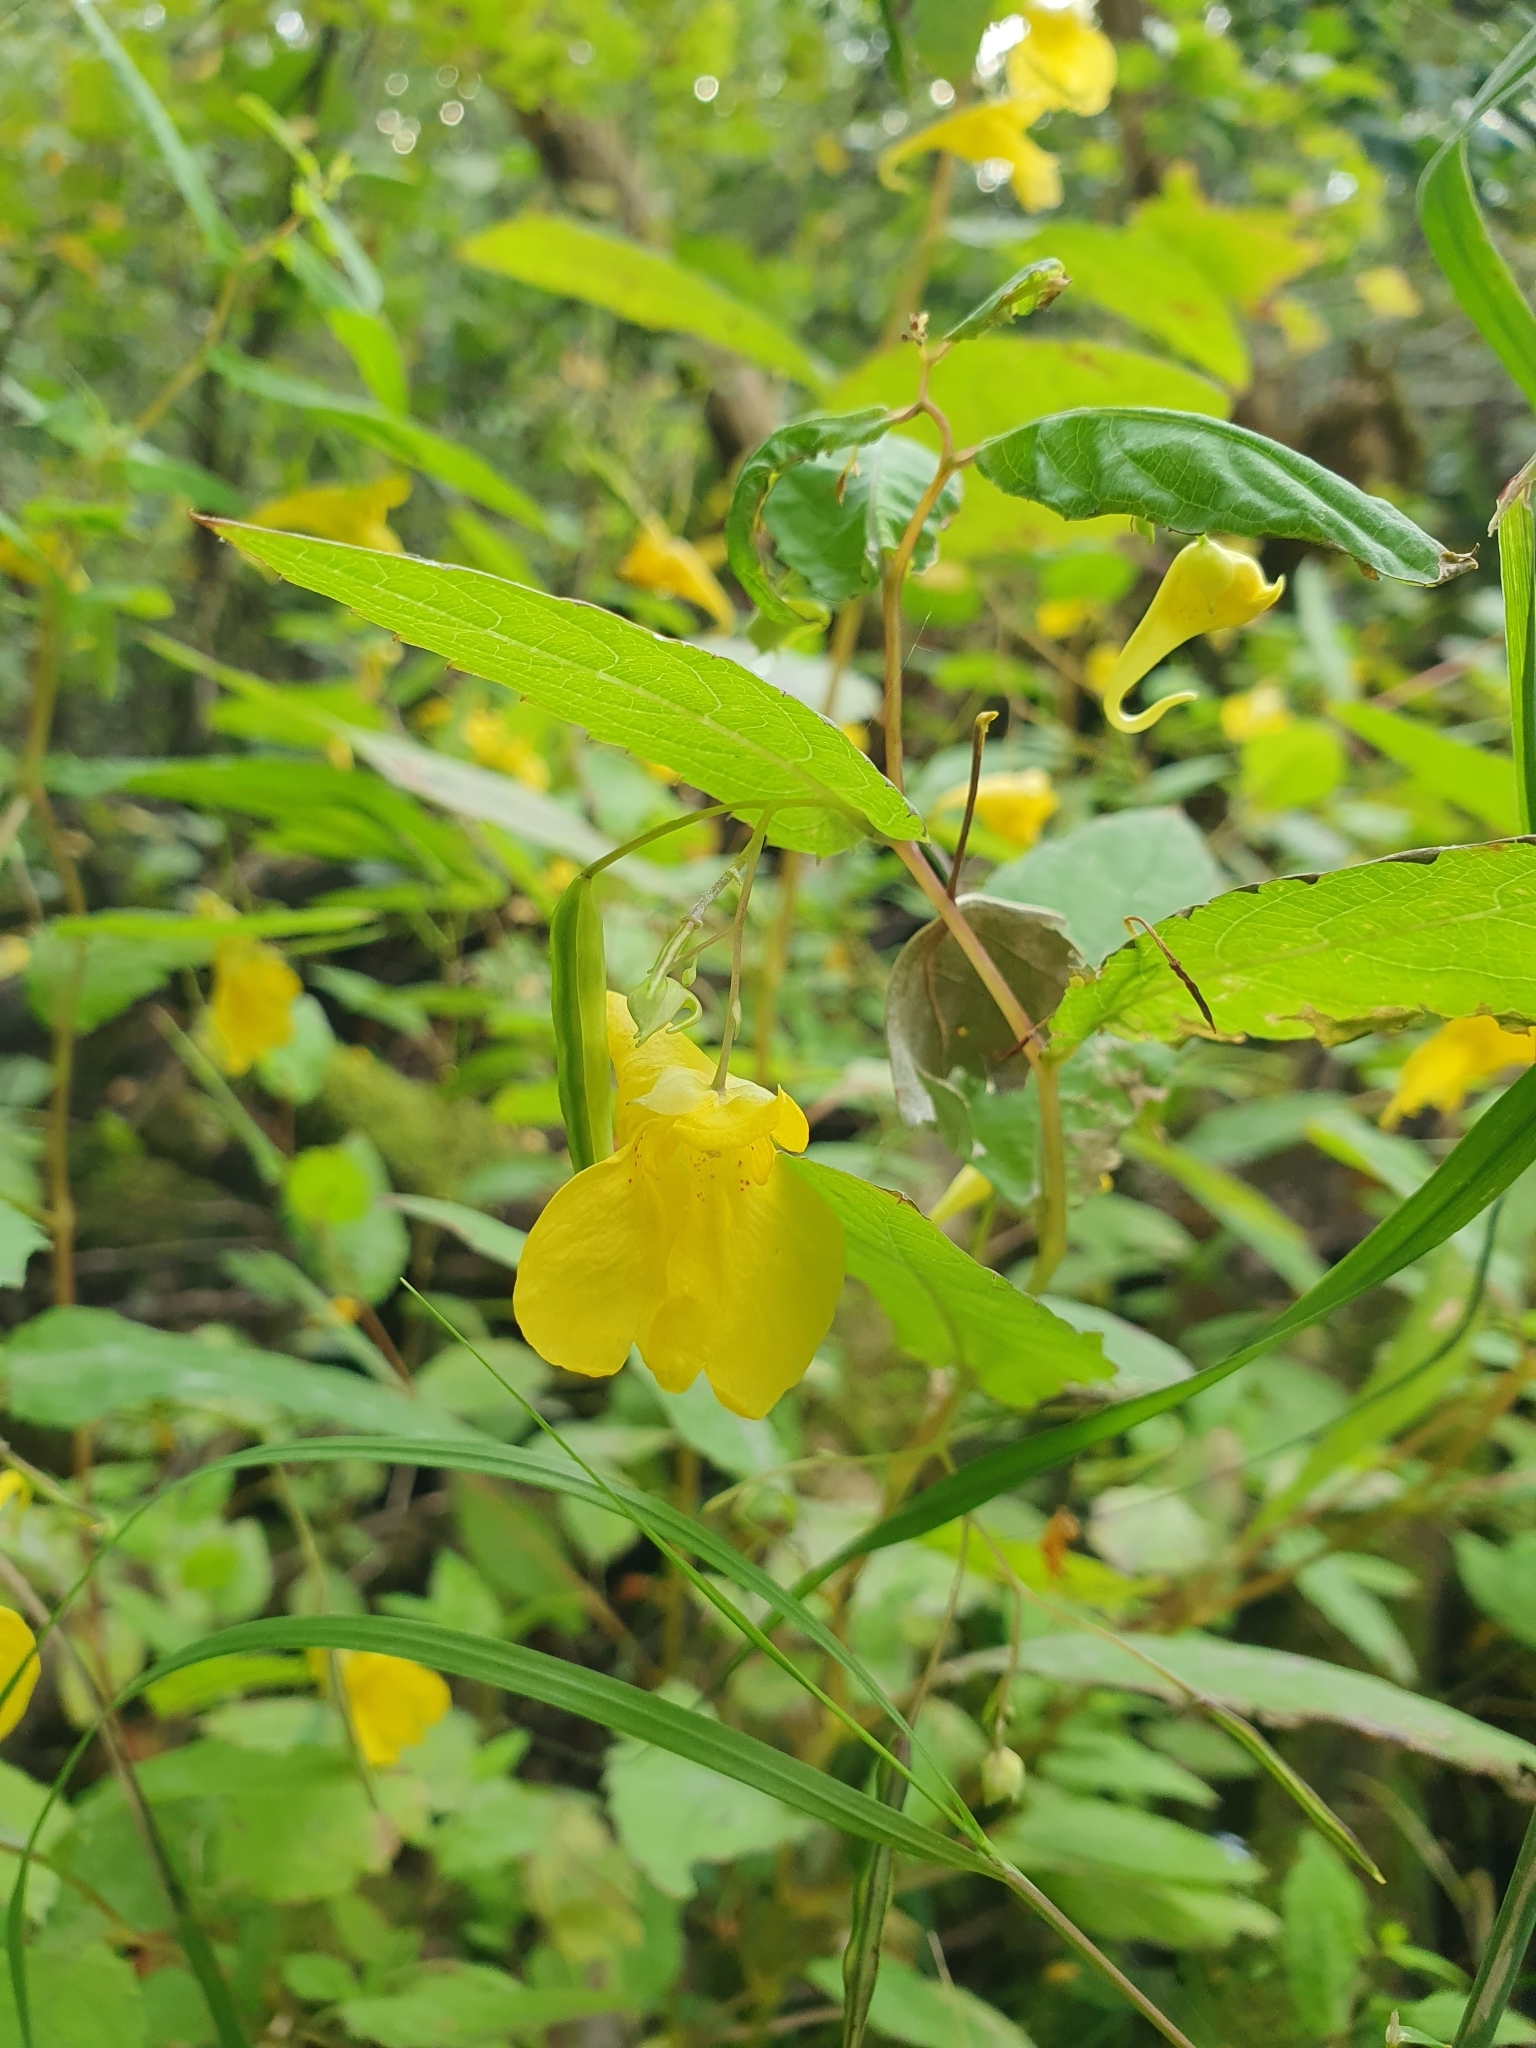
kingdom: Plantae
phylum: Tracheophyta
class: Magnoliopsida
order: Ericales
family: Balsaminaceae
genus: Impatiens
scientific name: Impatiens noli-tangere
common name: Touch-me-not balsam
